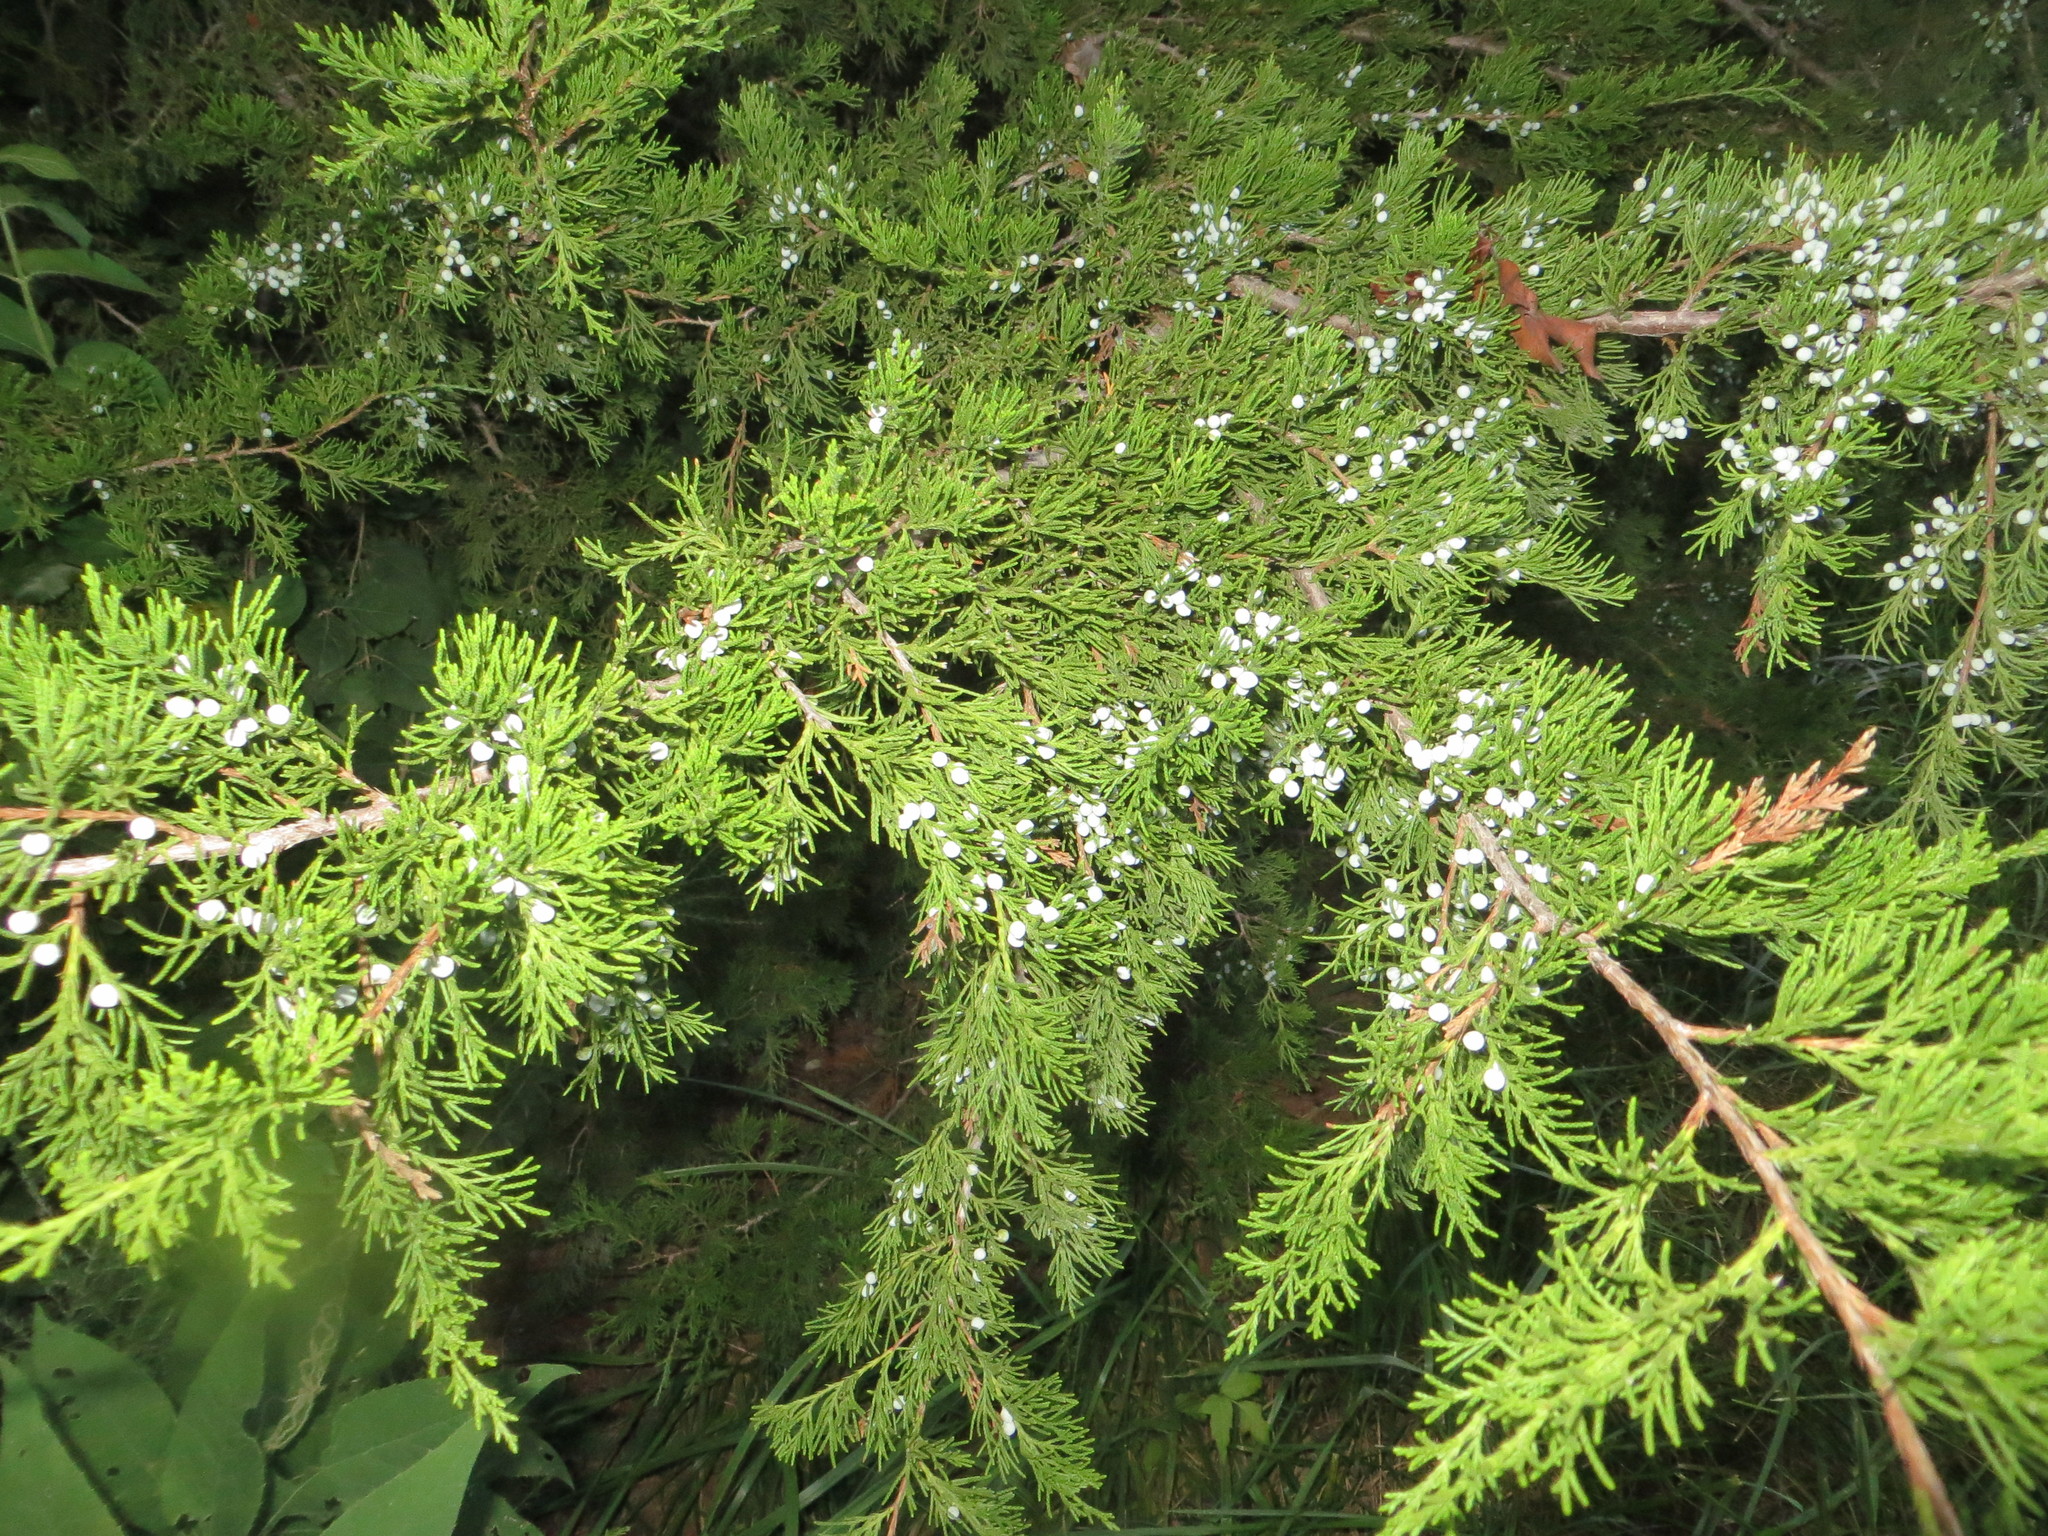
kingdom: Plantae
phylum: Tracheophyta
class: Pinopsida
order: Pinales
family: Cupressaceae
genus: Juniperus
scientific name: Juniperus virginiana
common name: Red juniper
